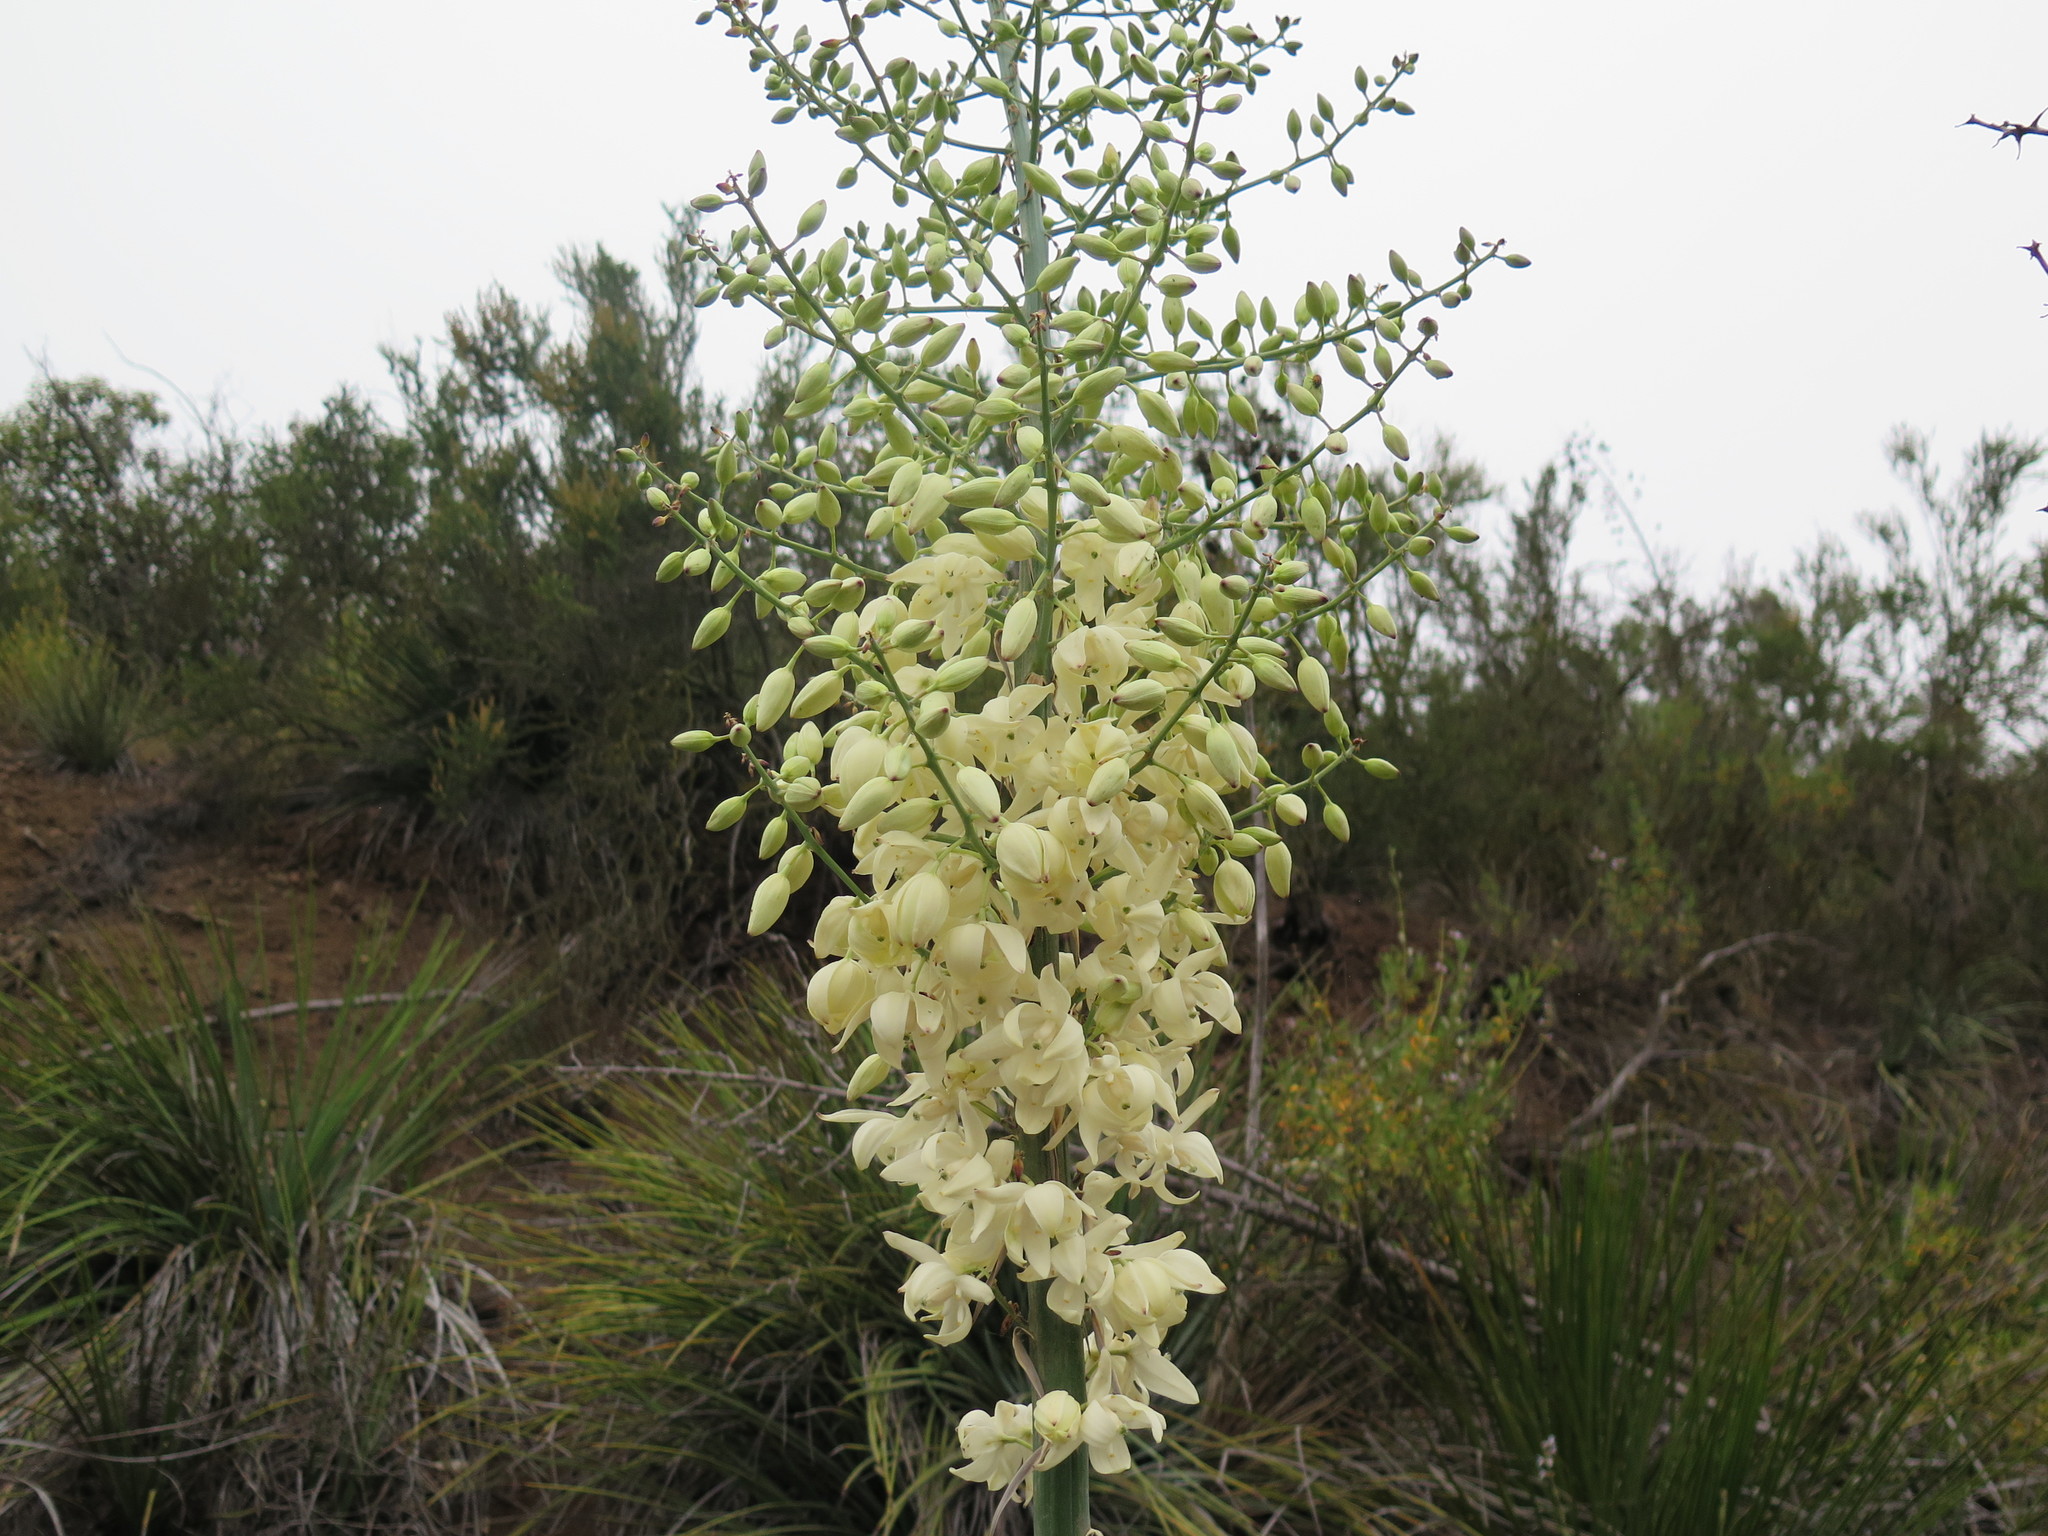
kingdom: Plantae
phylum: Tracheophyta
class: Liliopsida
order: Asparagales
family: Asparagaceae
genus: Hesperoyucca
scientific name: Hesperoyucca whipplei
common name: Our lord's-candle
